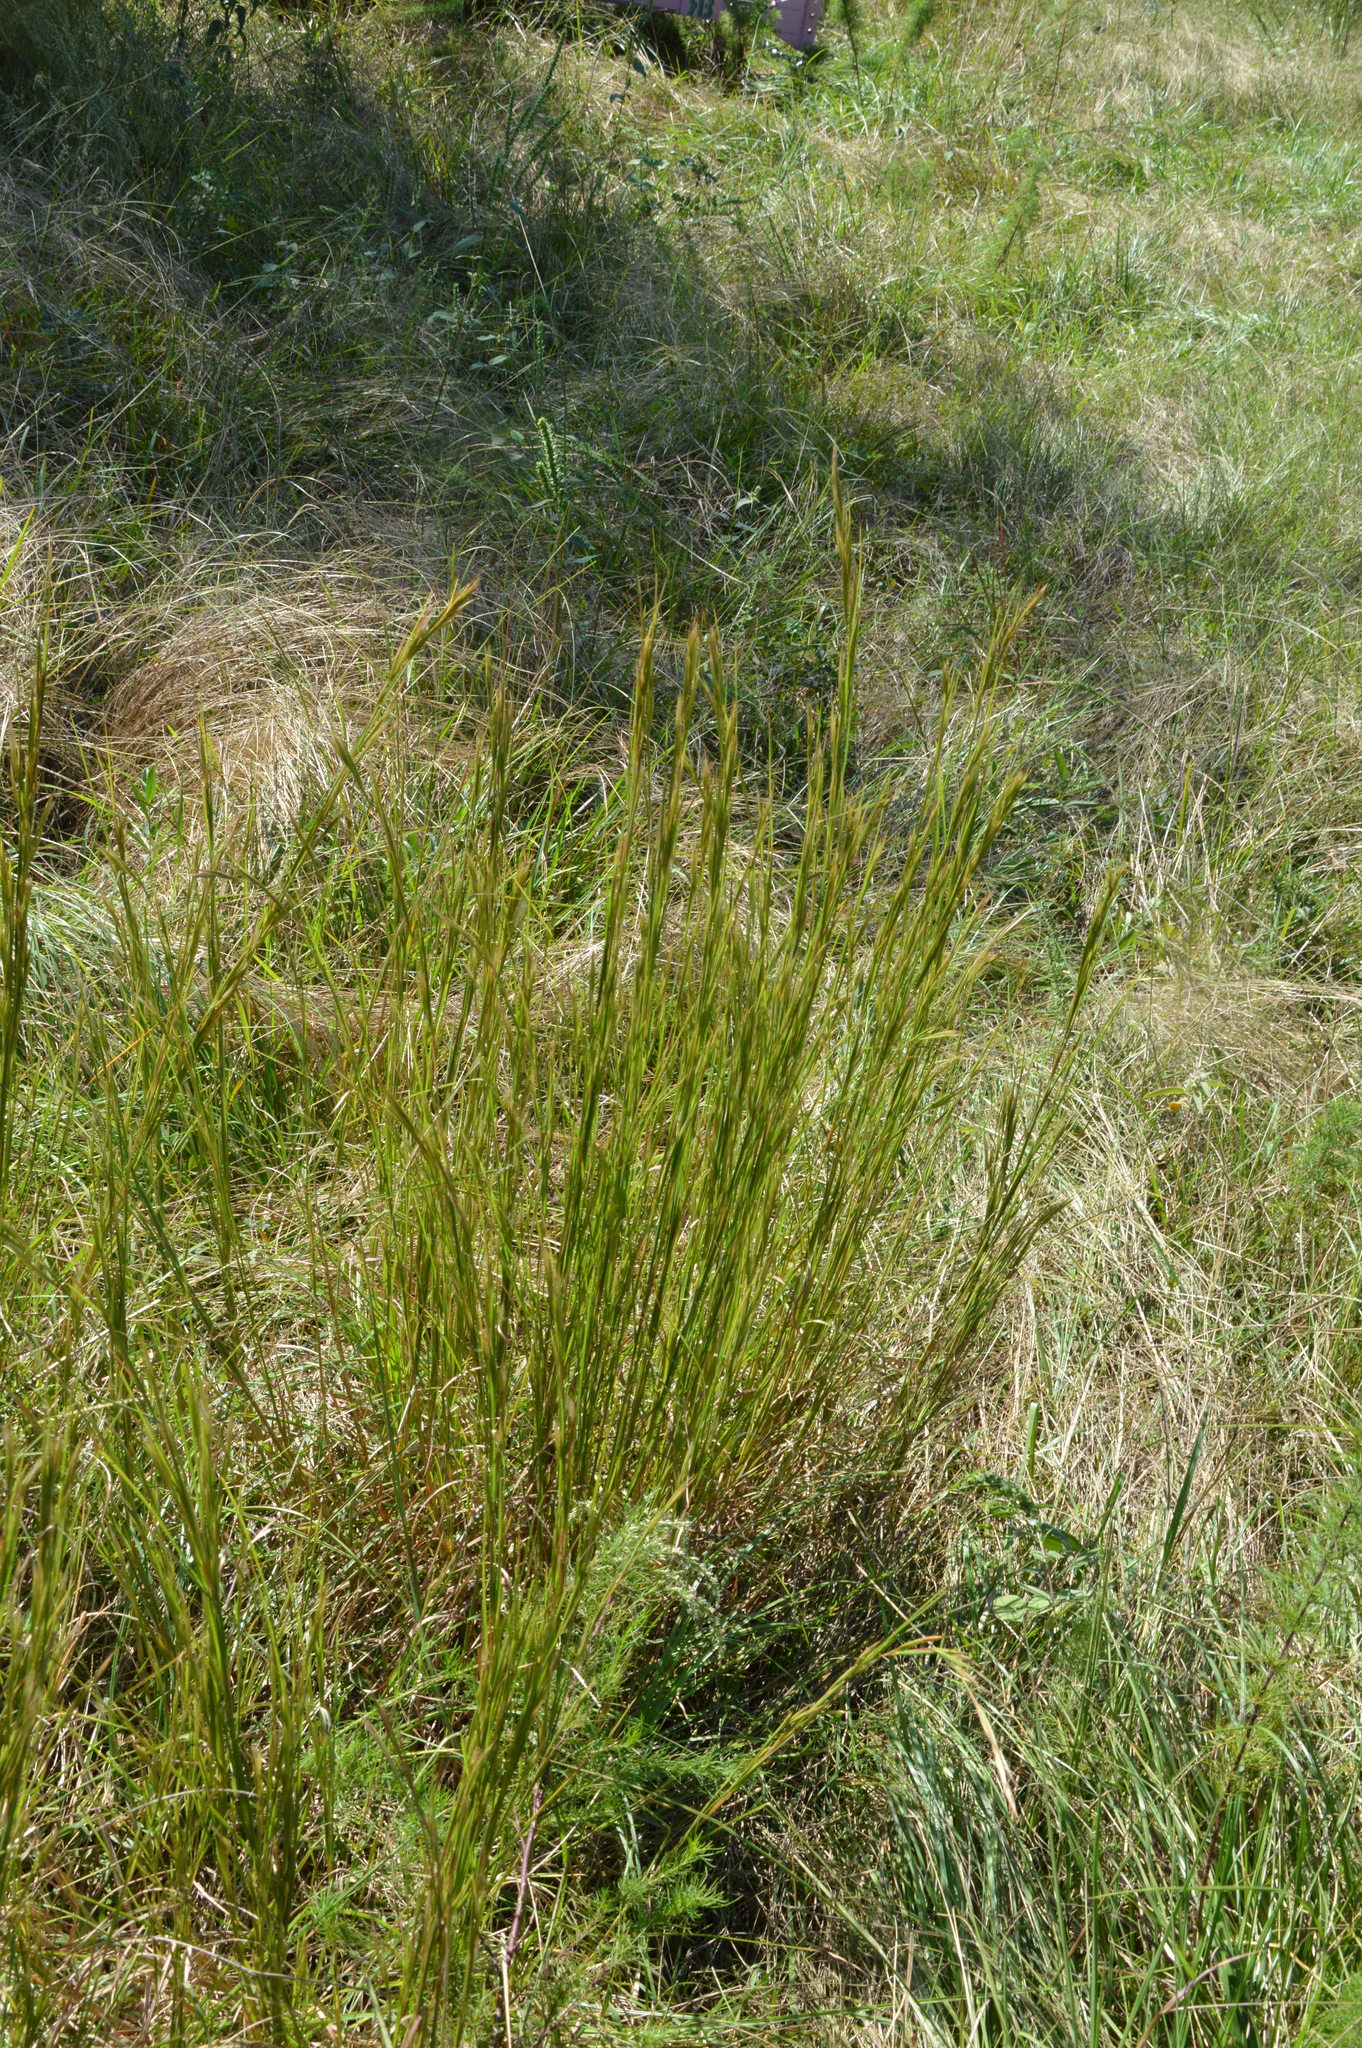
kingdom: Plantae
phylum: Tracheophyta
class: Liliopsida
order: Poales
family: Poaceae
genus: Andropogon
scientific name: Andropogon virginicus
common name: Broomsedge bluestem
